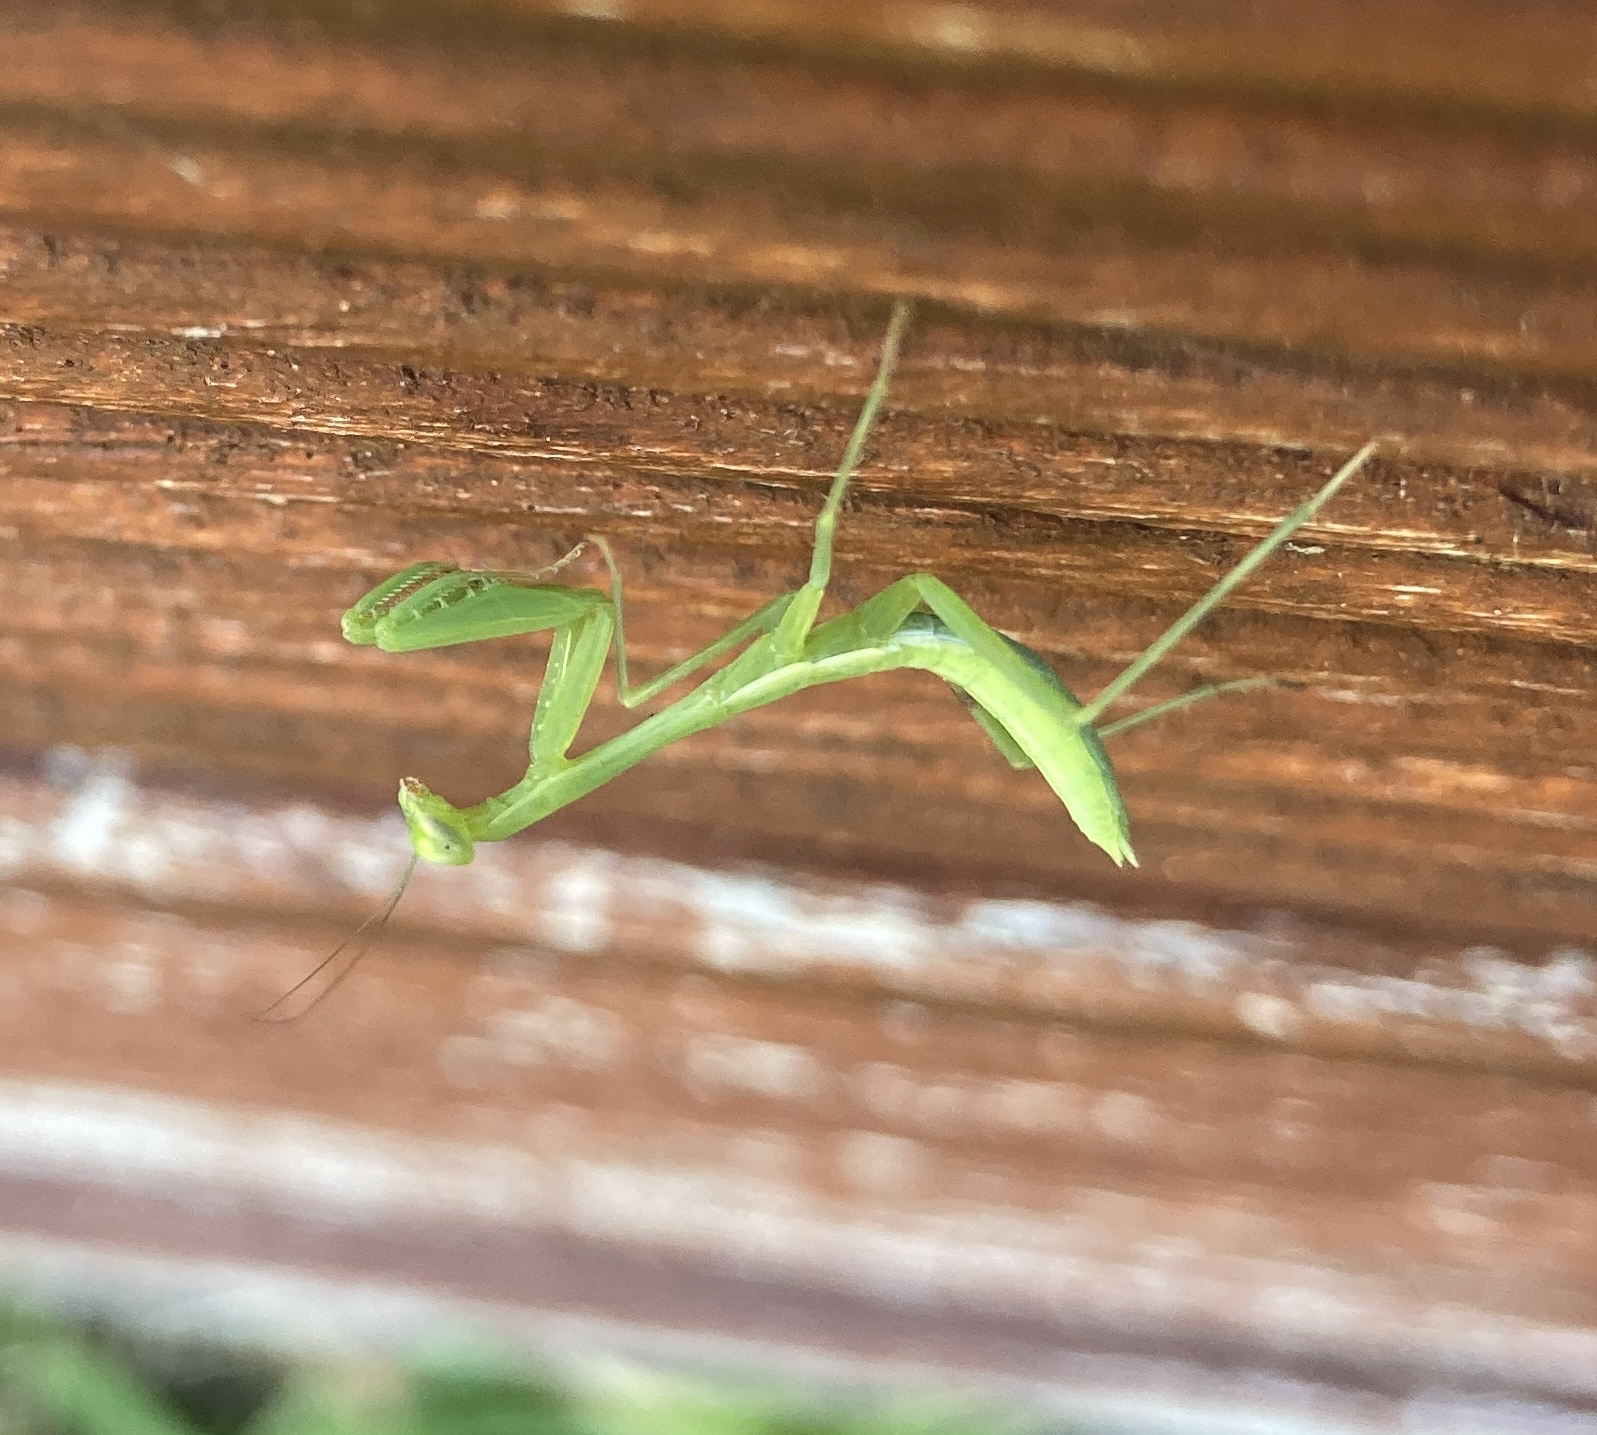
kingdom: Animalia
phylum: Arthropoda
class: Insecta
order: Mantodea
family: Miomantidae
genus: Miomantis
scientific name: Miomantis caffra
